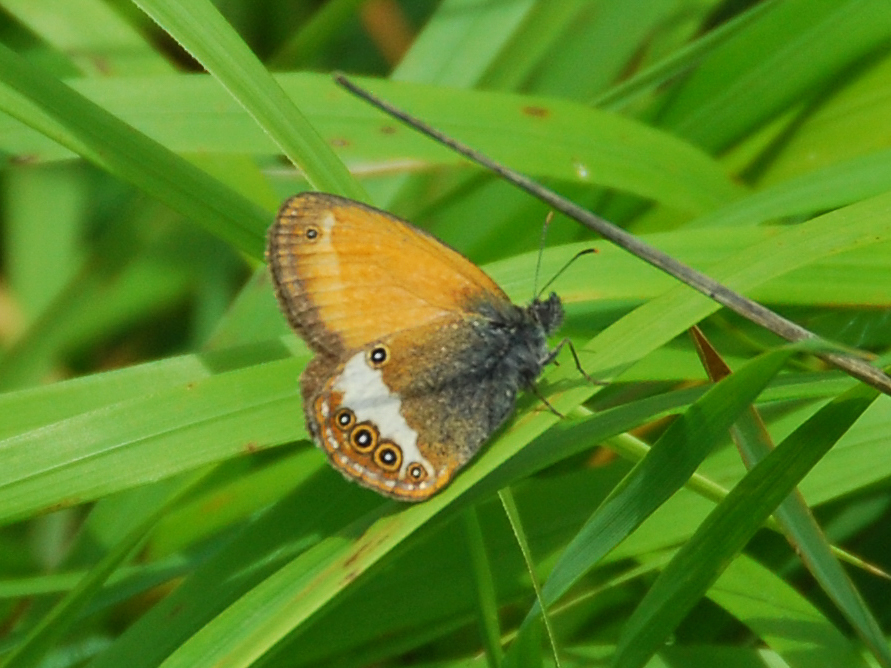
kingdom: Animalia
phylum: Arthropoda
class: Insecta
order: Lepidoptera
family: Nymphalidae
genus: Coenonympha
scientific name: Coenonympha arcania
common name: Pearly heath
